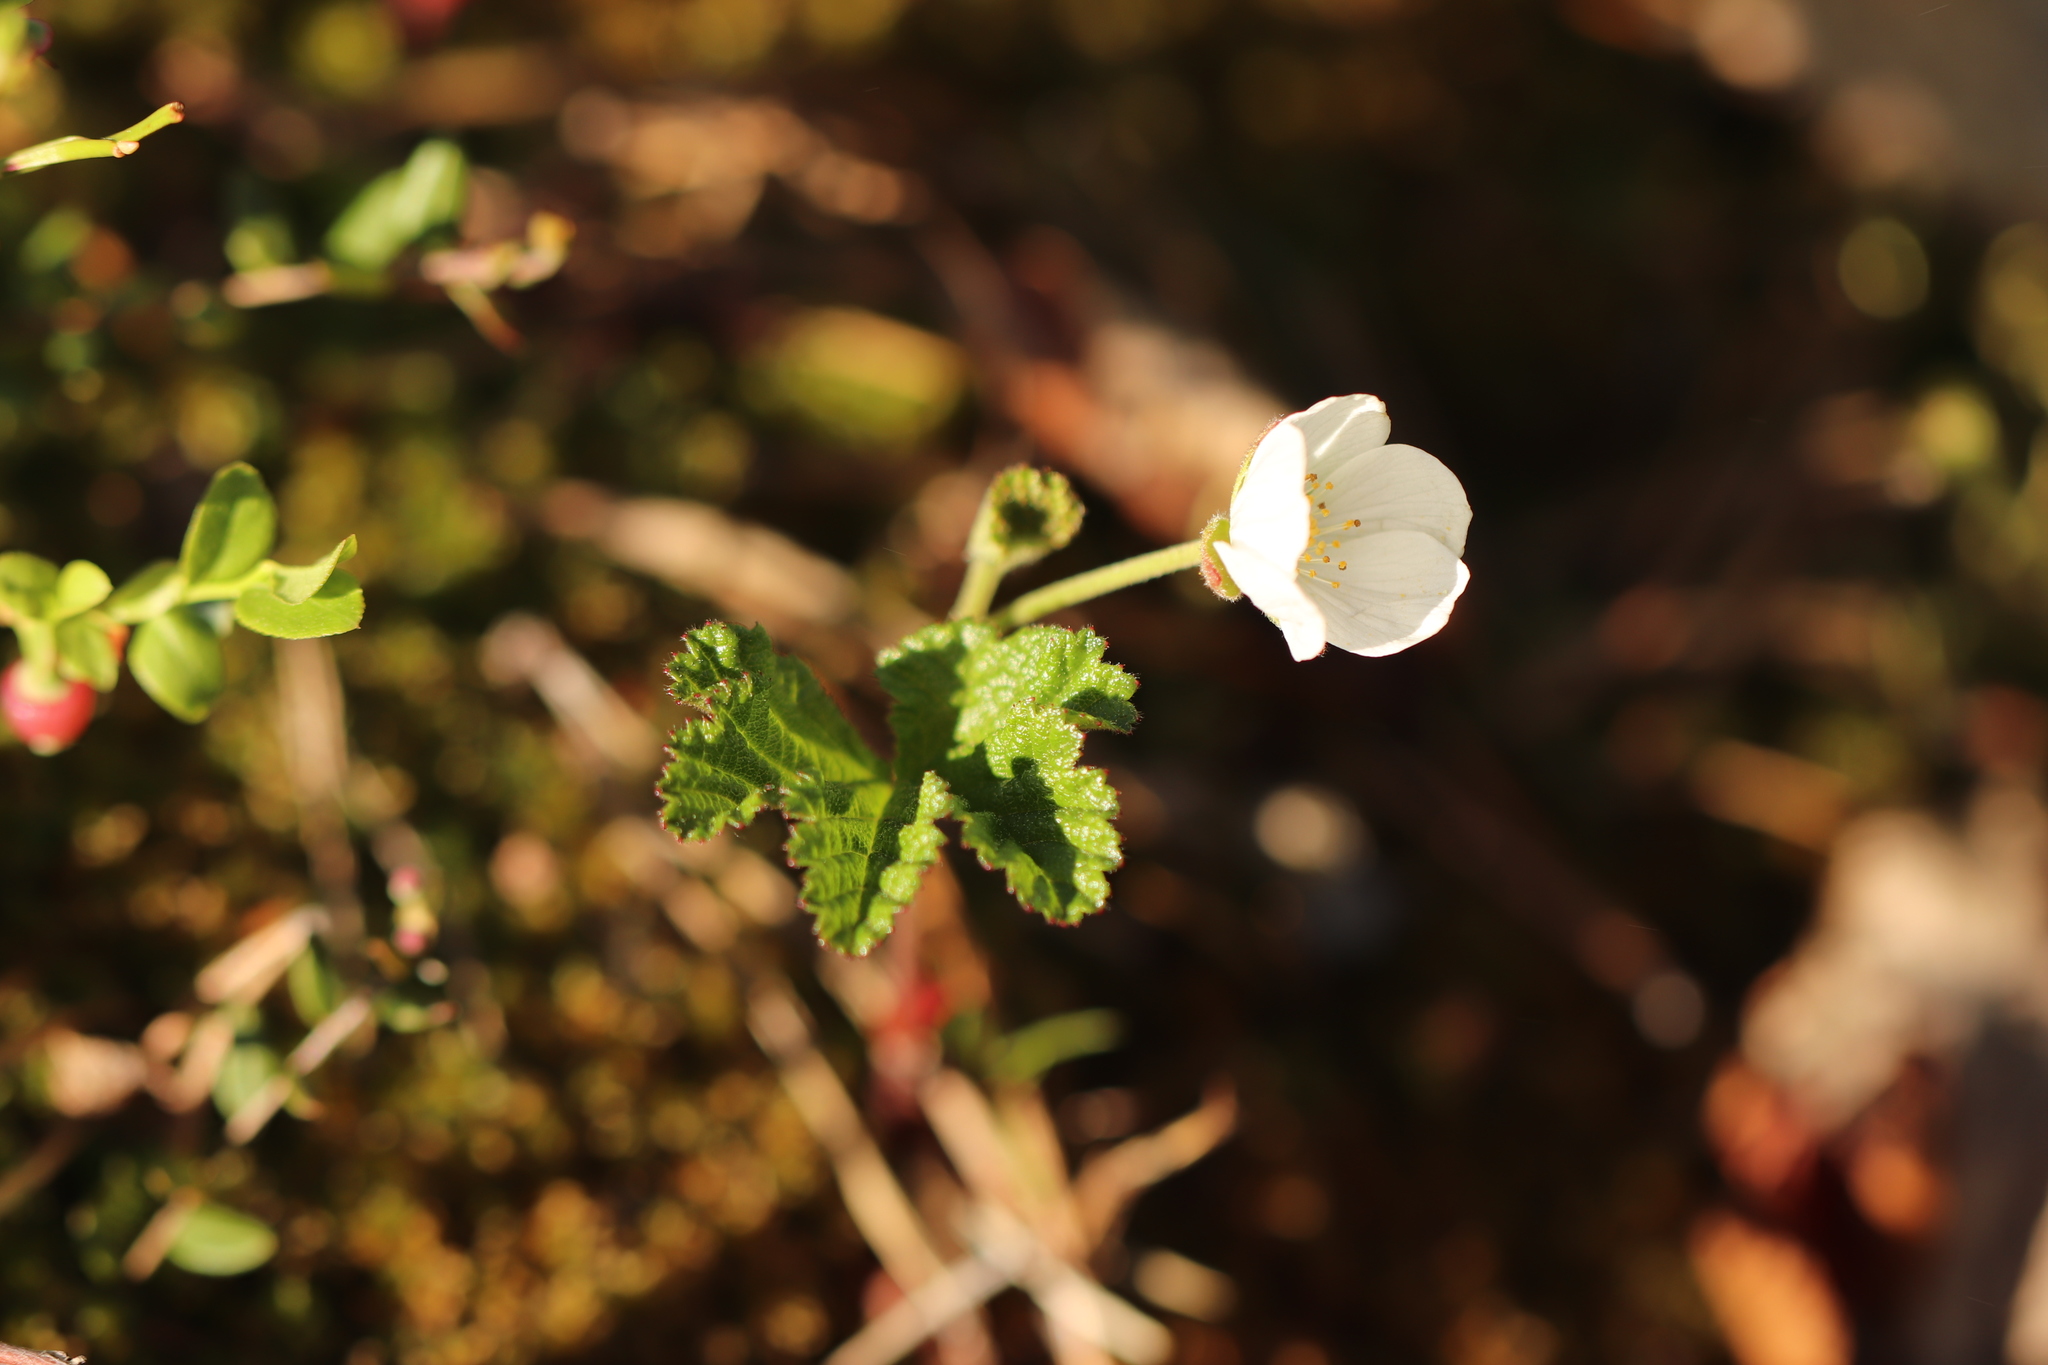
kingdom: Plantae
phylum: Tracheophyta
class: Magnoliopsida
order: Rosales
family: Rosaceae
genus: Rubus
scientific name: Rubus chamaemorus
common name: Cloudberry
